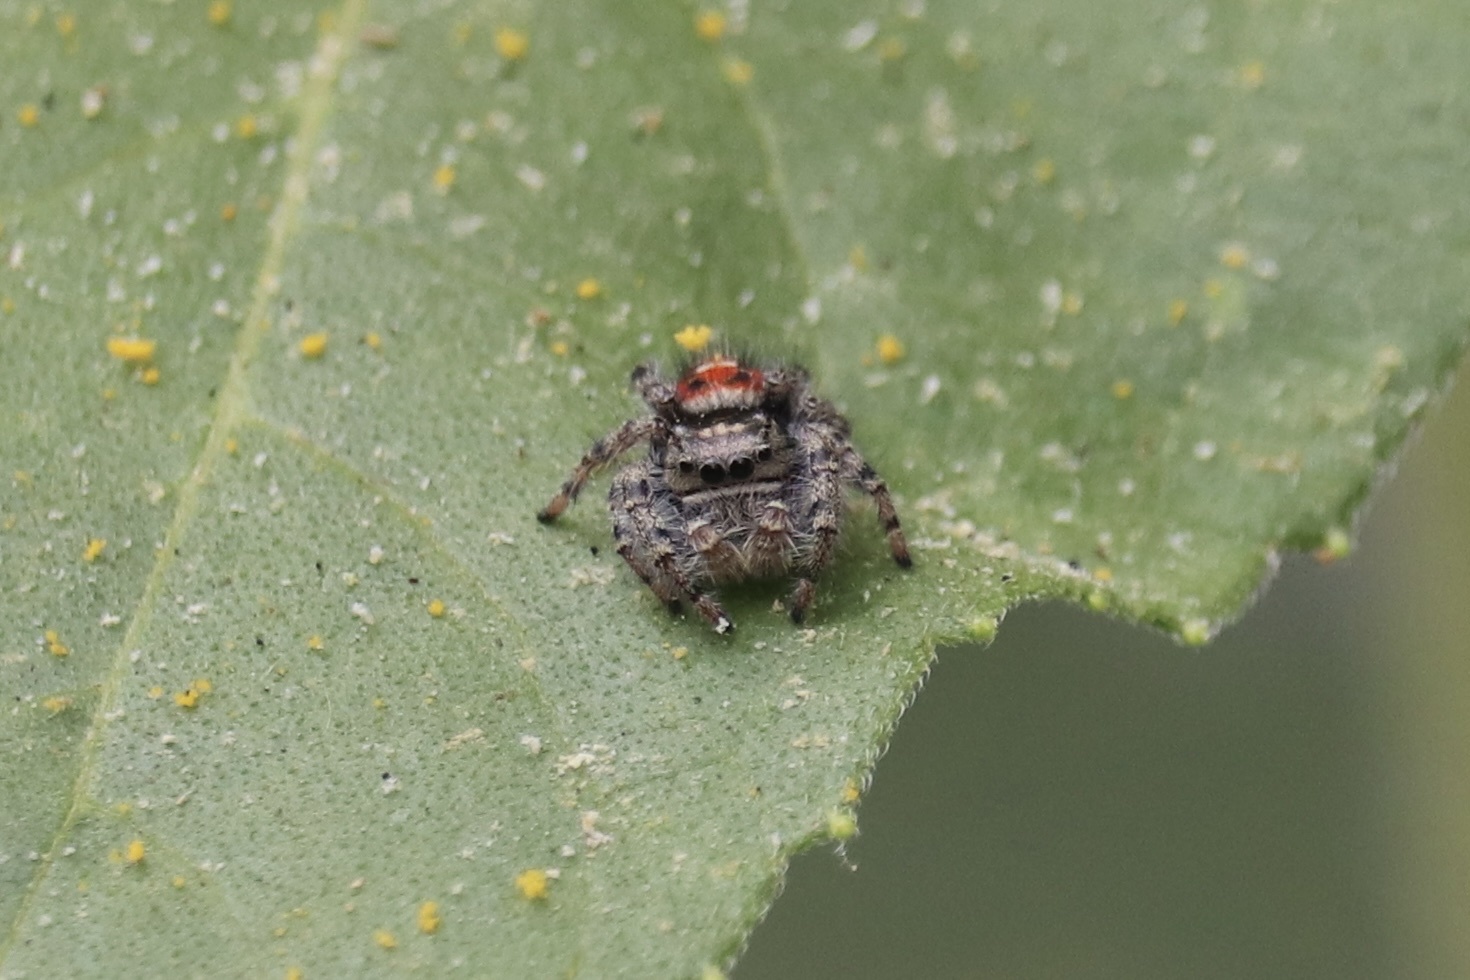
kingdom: Animalia
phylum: Arthropoda
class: Arachnida
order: Araneae
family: Salticidae
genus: Phidippus
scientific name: Phidippus adumbratus
